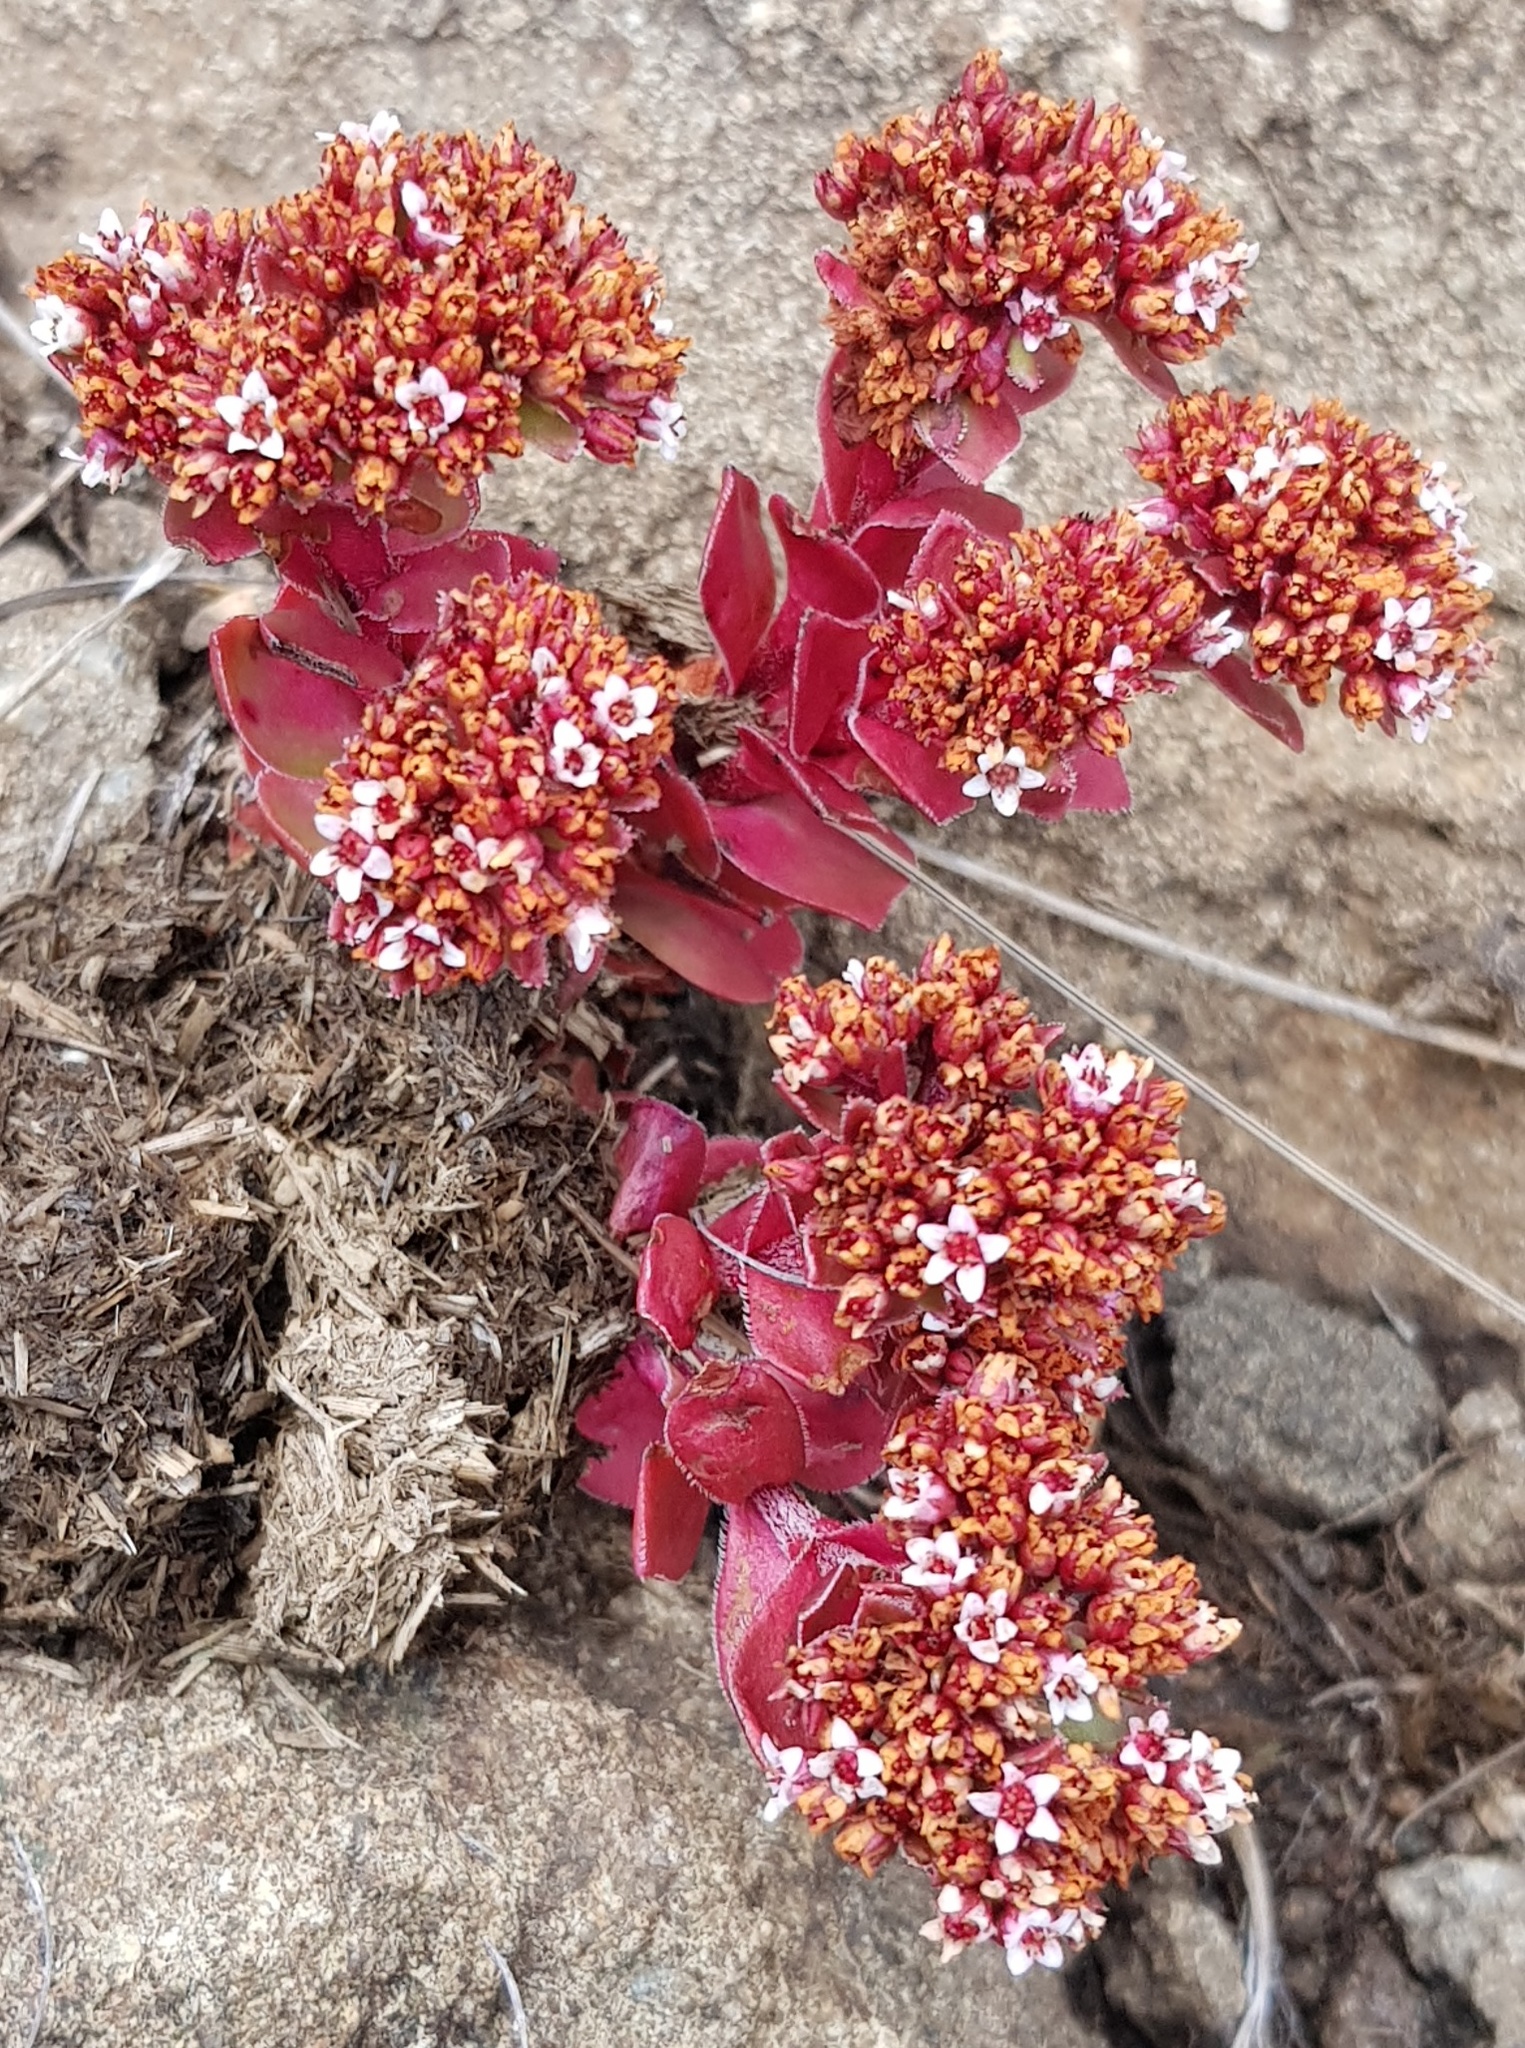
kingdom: Plantae
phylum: Tracheophyta
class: Magnoliopsida
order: Saxifragales
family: Crassulaceae
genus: Crassula
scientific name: Crassula natalensis
